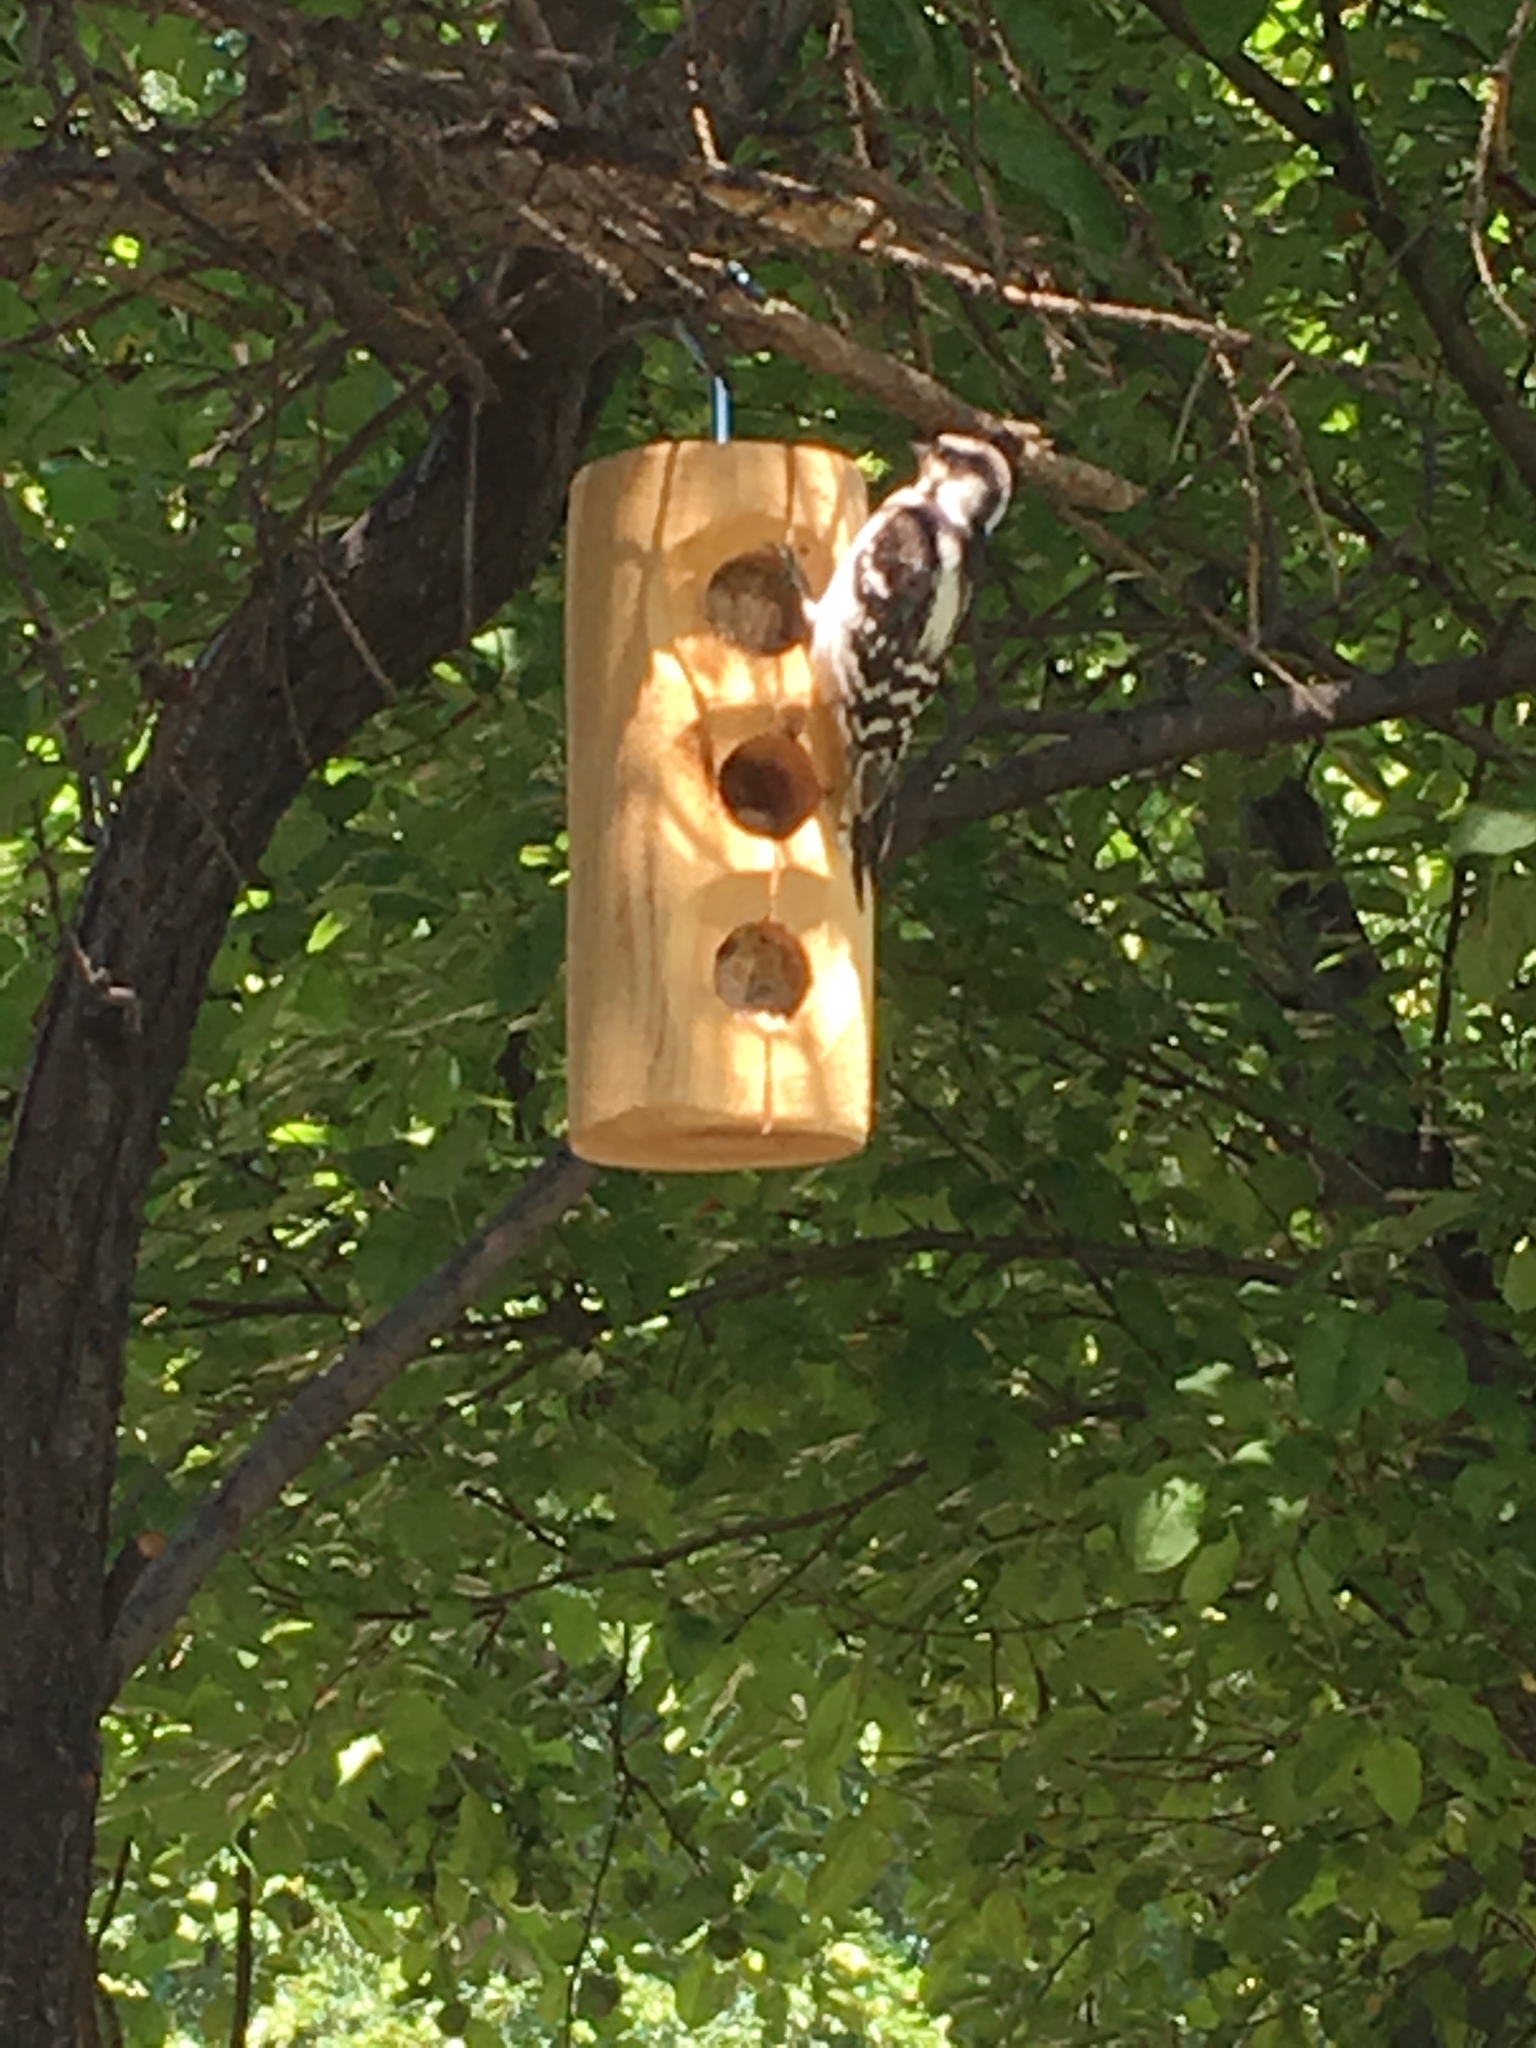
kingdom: Animalia
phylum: Chordata
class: Aves
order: Piciformes
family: Picidae
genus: Dryobates
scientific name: Dryobates pubescens
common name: Downy woodpecker
